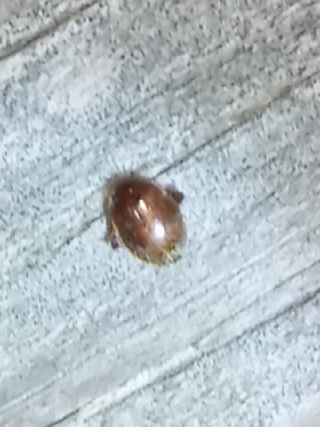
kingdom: Animalia
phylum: Arthropoda
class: Insecta
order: Coleoptera
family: Scirtidae
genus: Scirtes
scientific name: Scirtes tibialis
